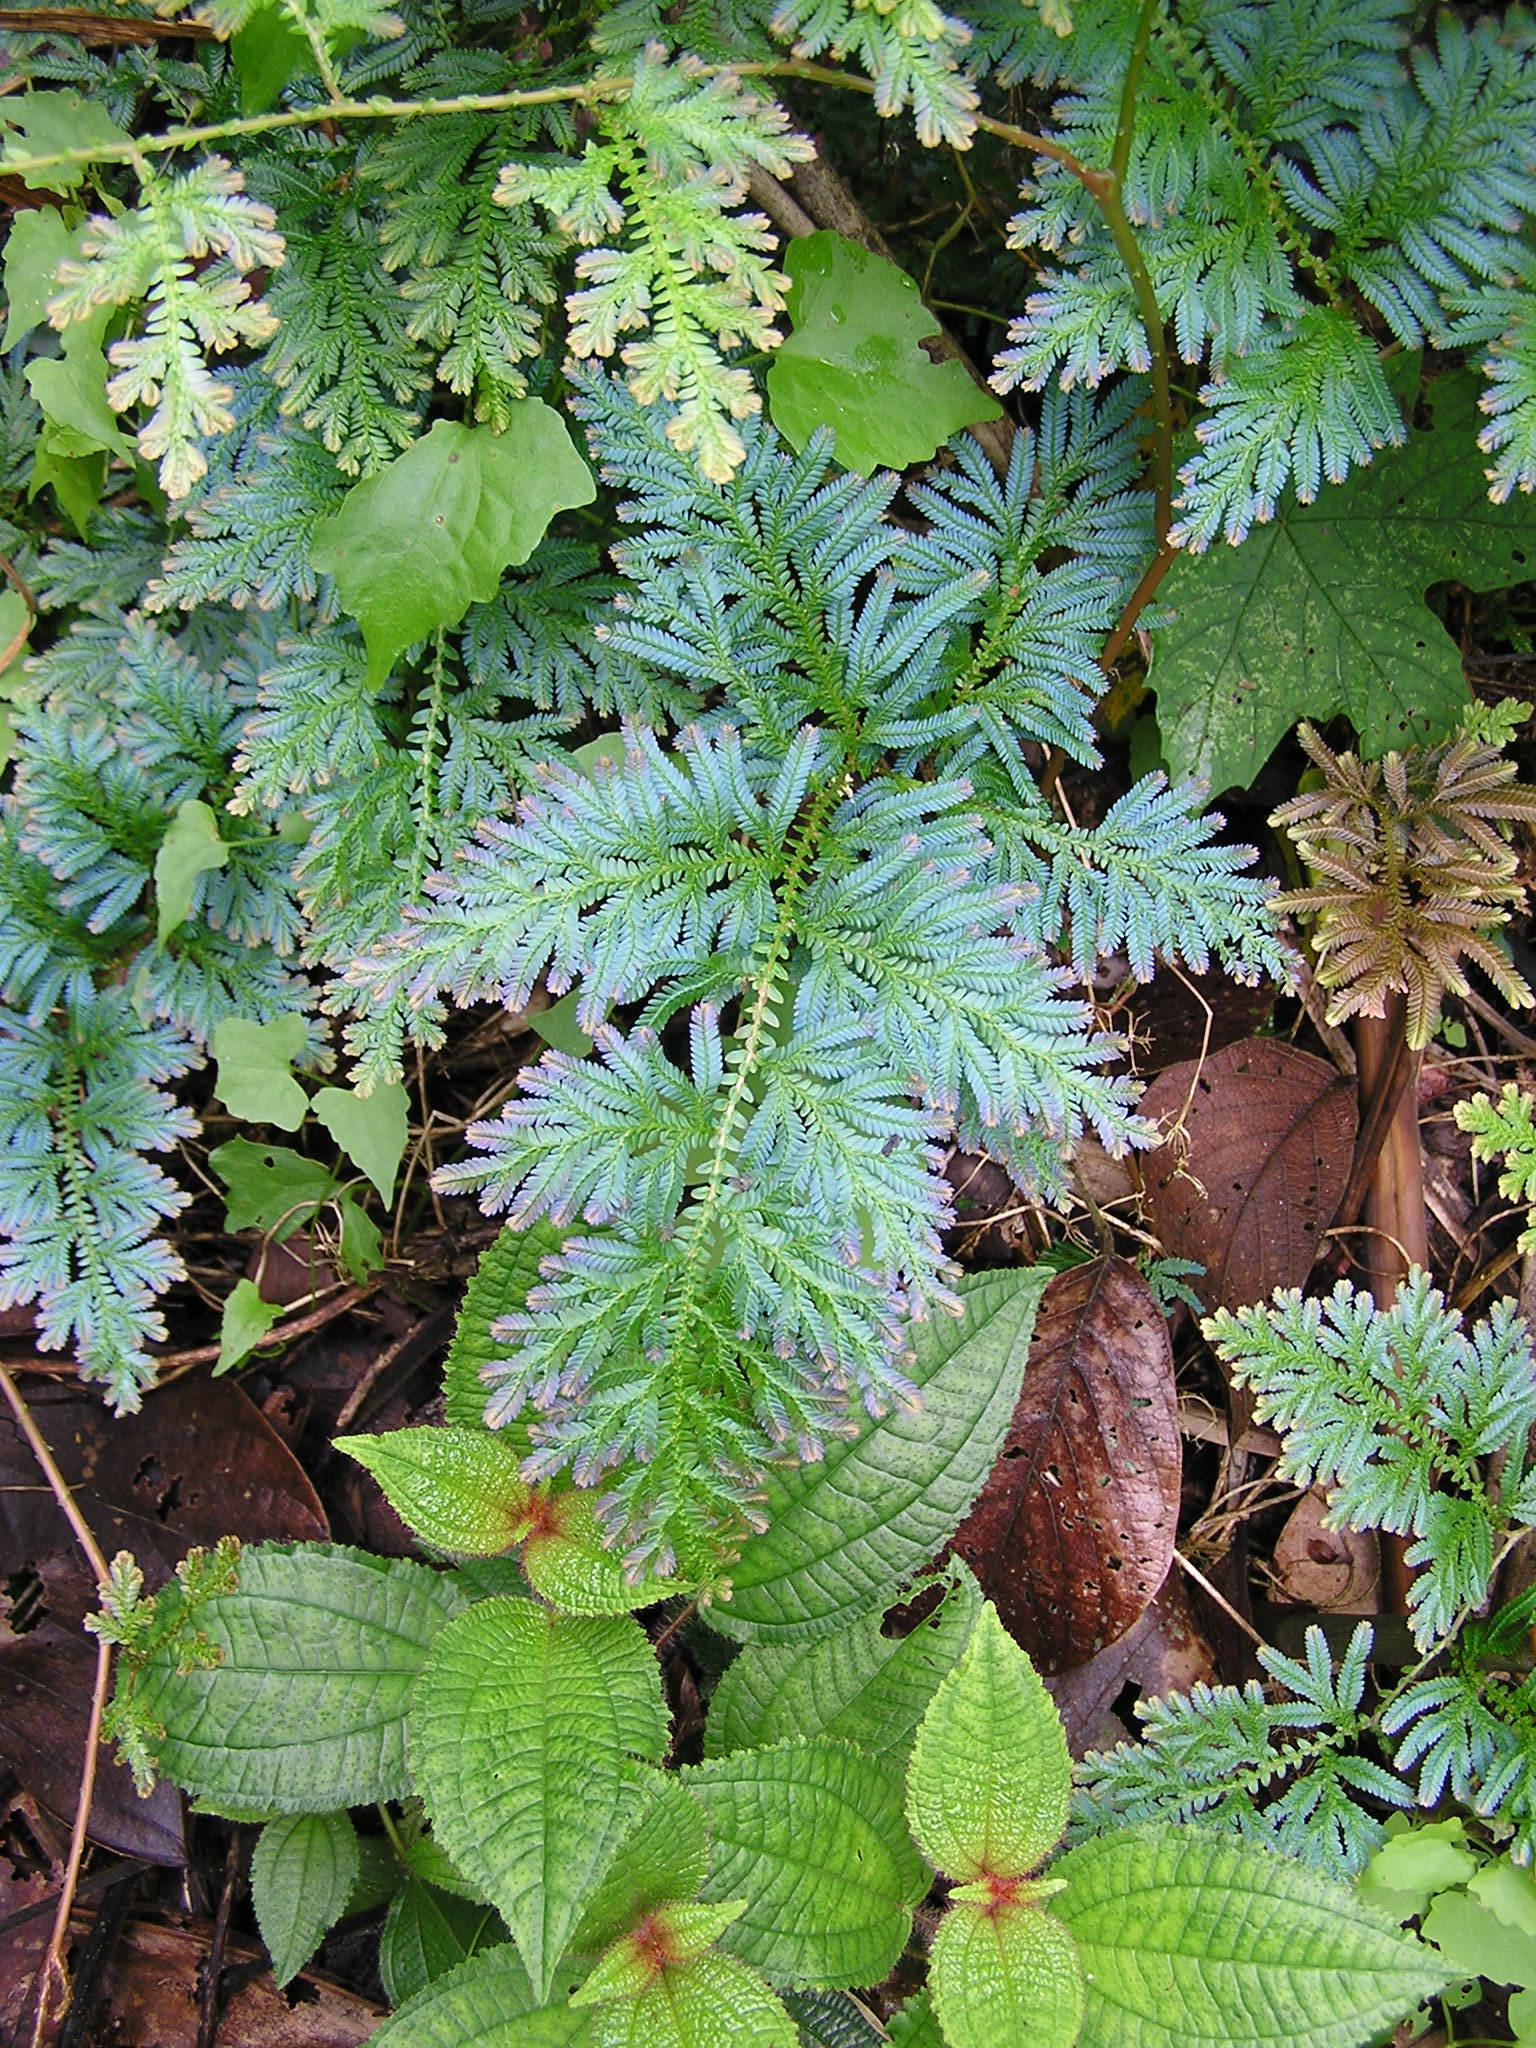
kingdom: Plantae
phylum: Tracheophyta
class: Lycopodiopsida
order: Selaginellales
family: Selaginellaceae
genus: Selaginella
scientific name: Selaginella willdenowii
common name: Willdenow's spikemoss
